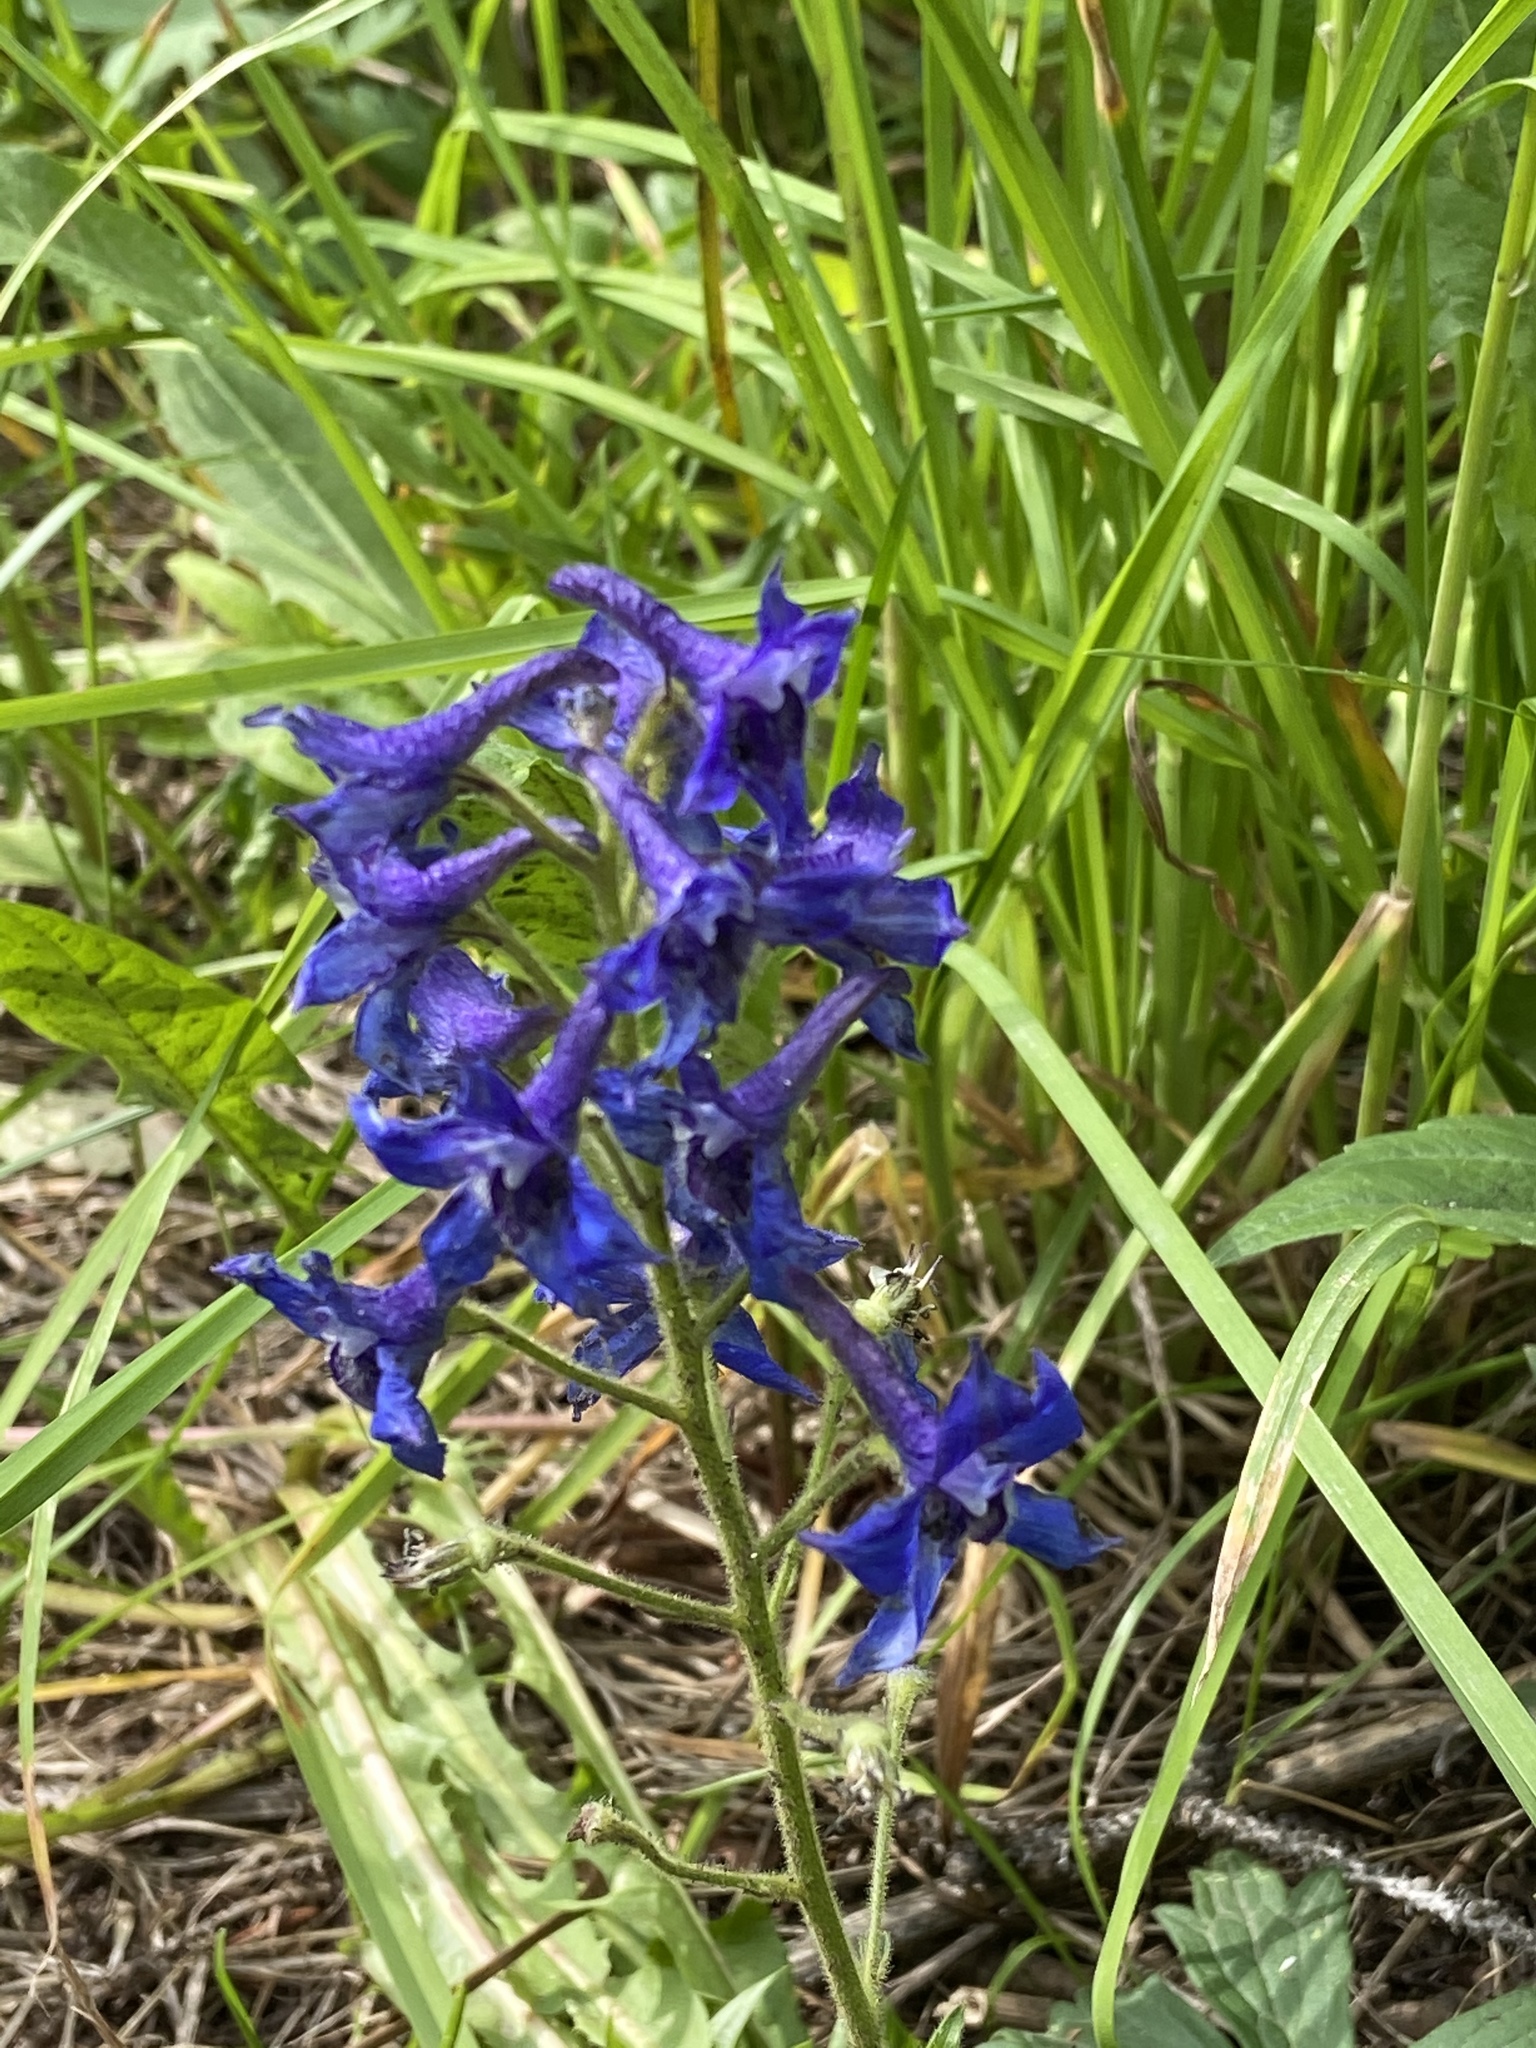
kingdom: Plantae
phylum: Tracheophyta
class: Magnoliopsida
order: Ranunculales
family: Ranunculaceae
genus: Delphinium
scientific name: Delphinium barbeyi
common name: Subalpine larkspur
